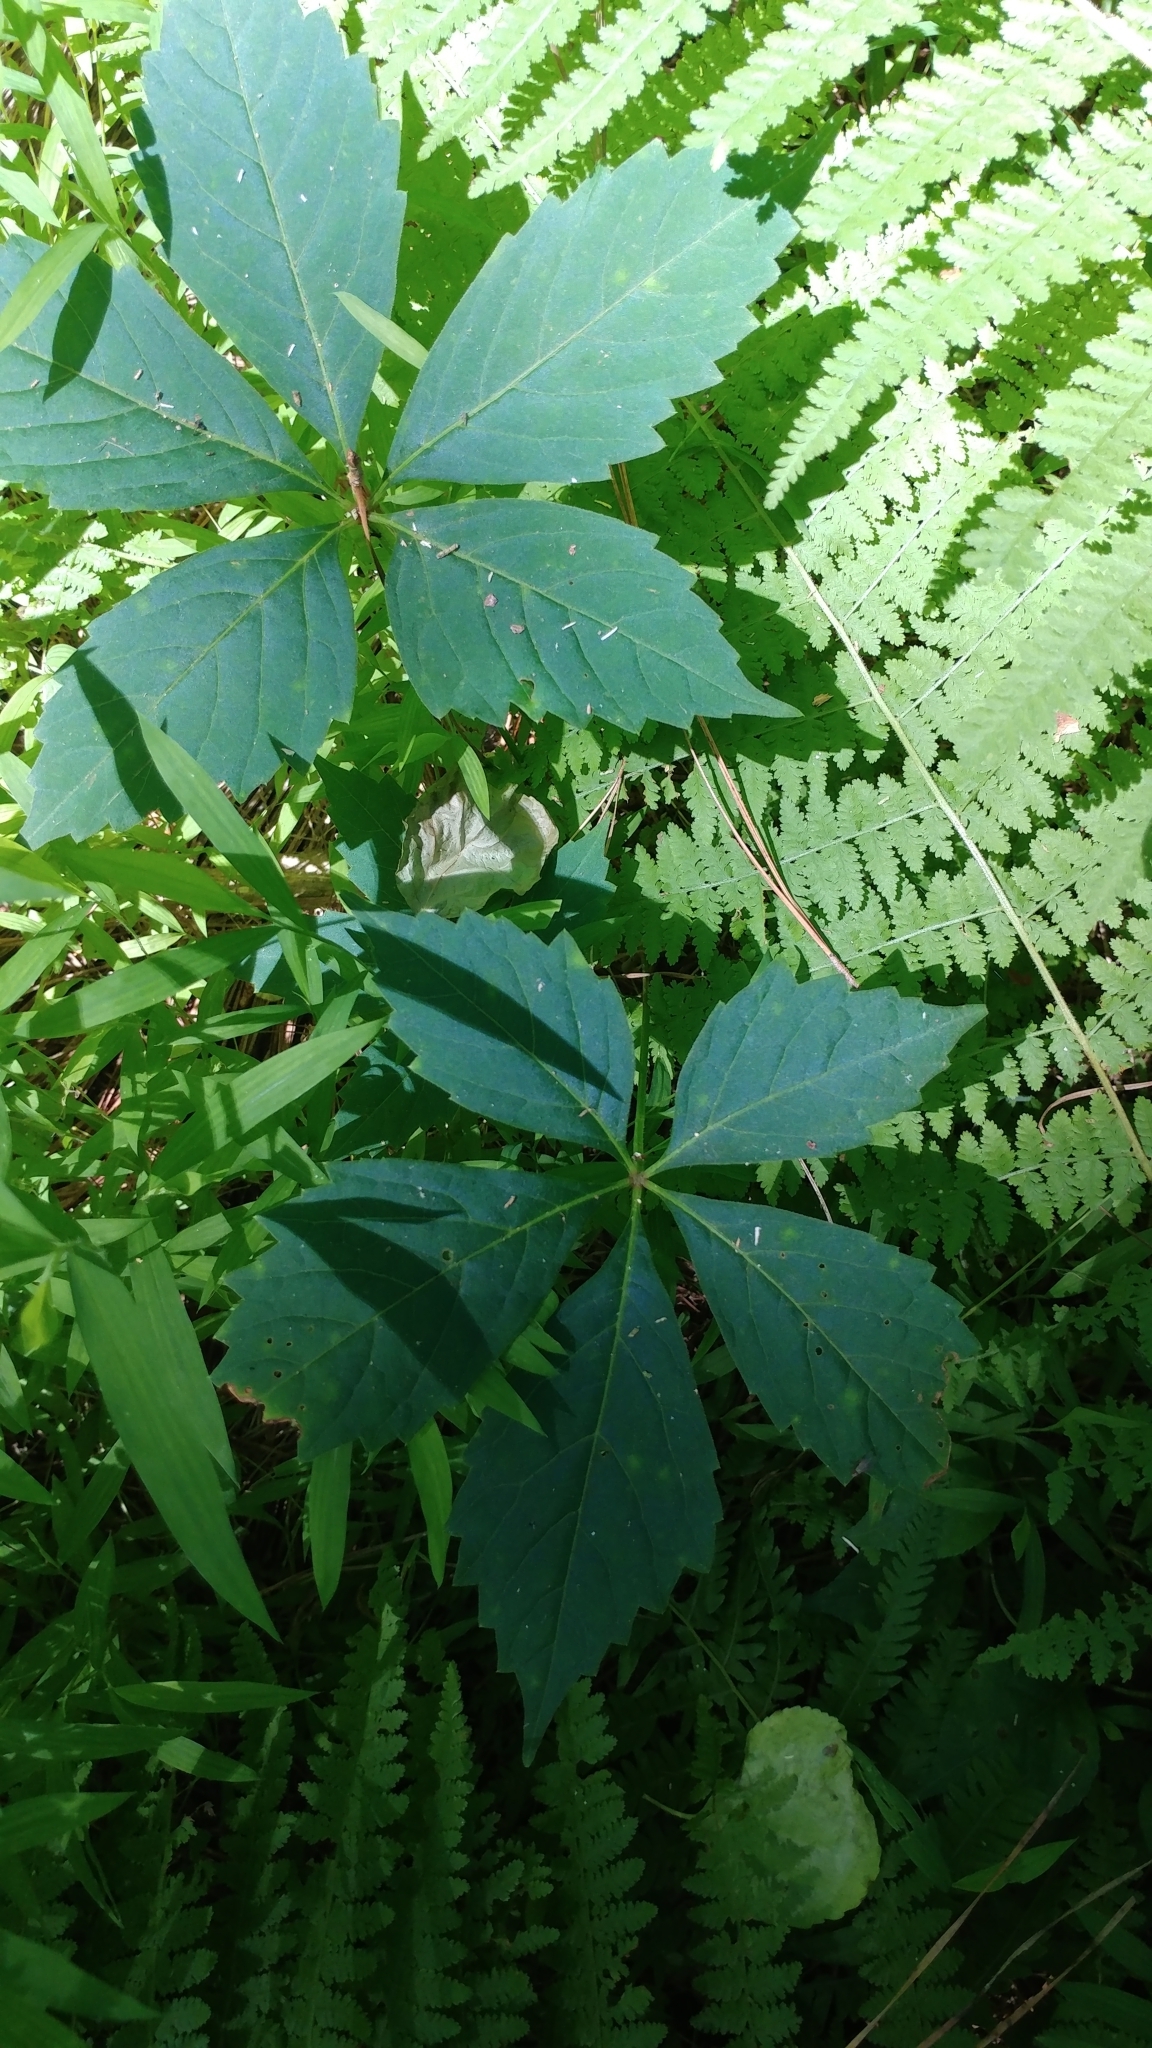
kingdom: Plantae
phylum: Tracheophyta
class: Magnoliopsida
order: Vitales
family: Vitaceae
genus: Parthenocissus
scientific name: Parthenocissus quinquefolia
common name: Virginia-creeper
